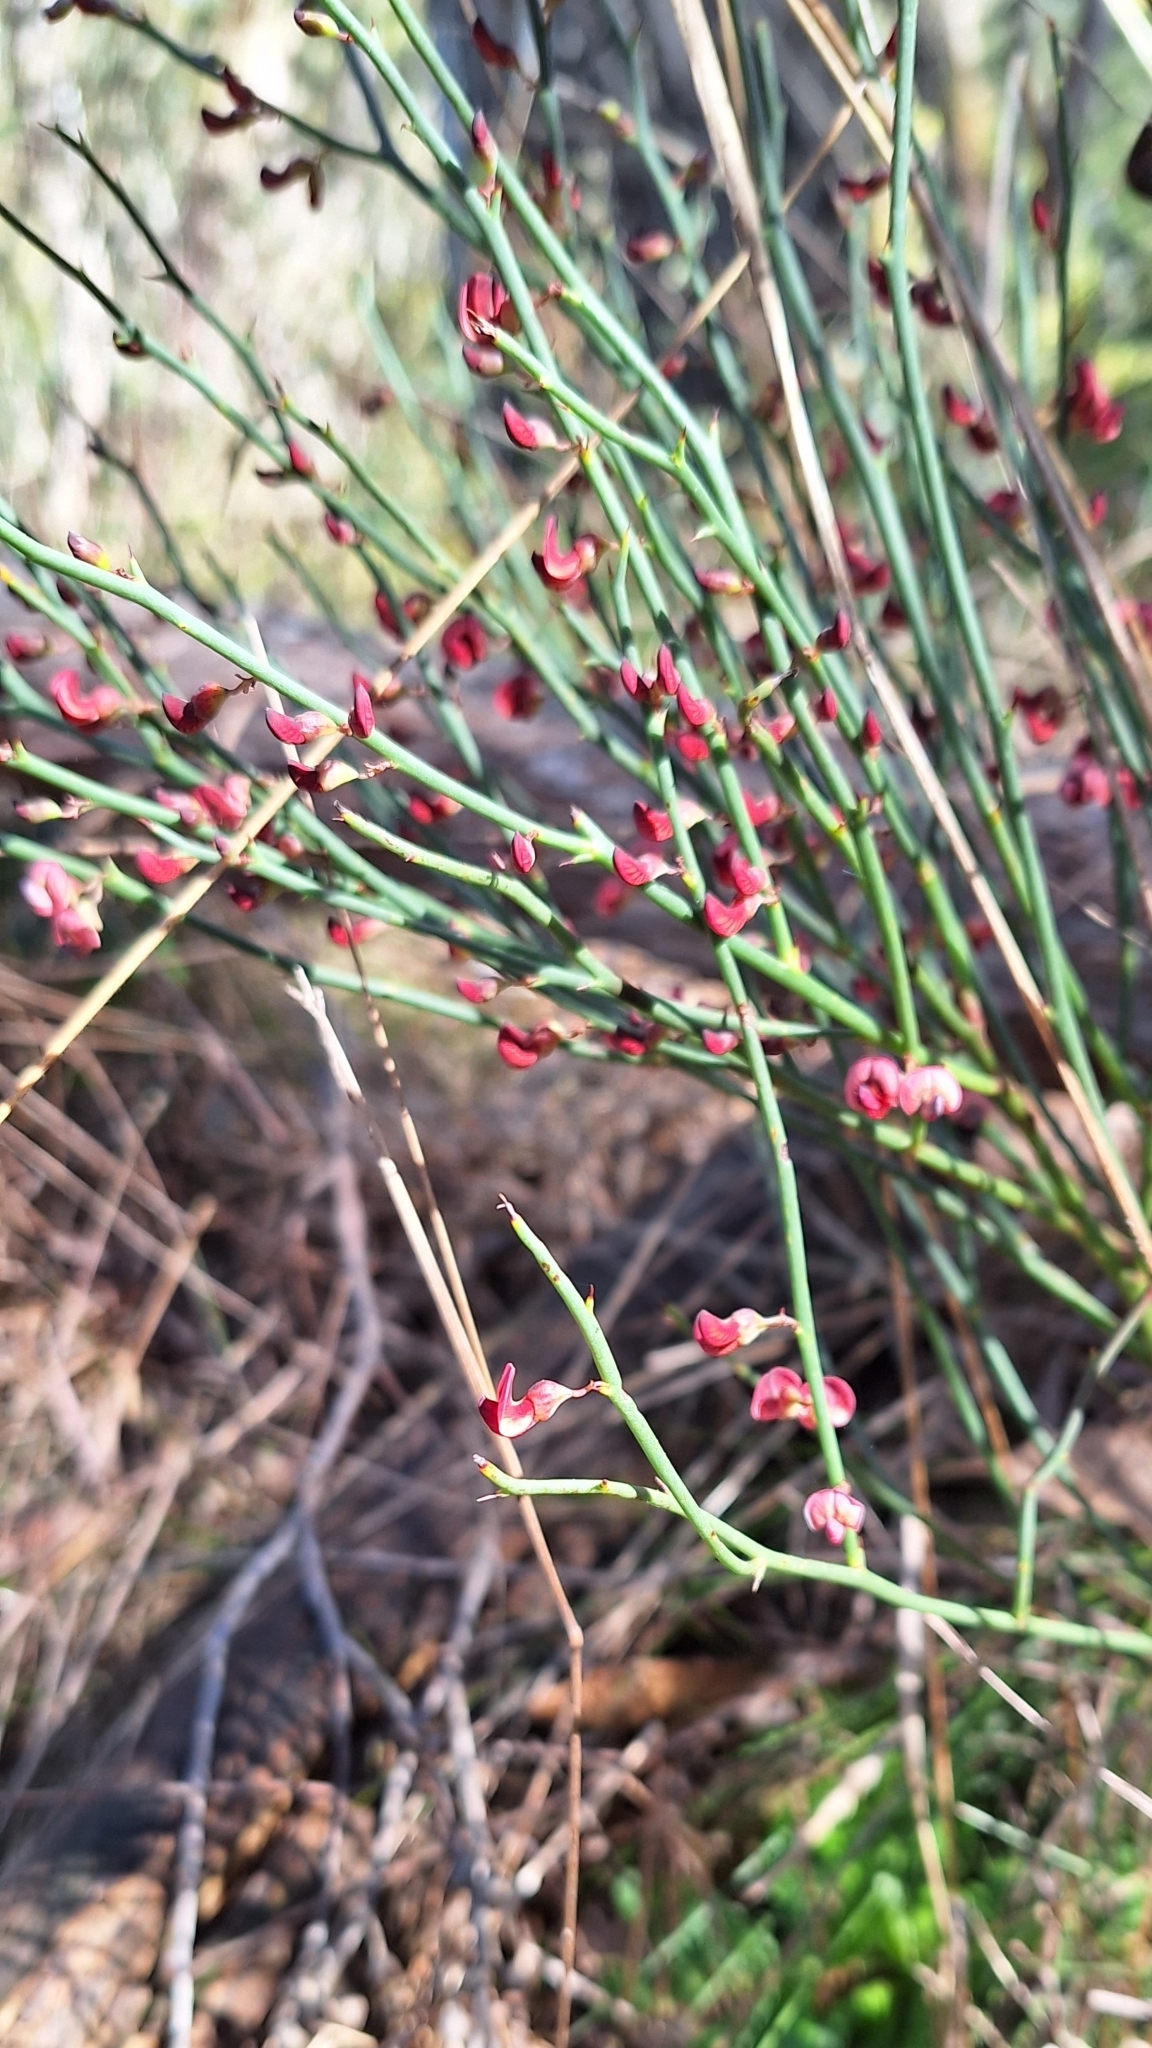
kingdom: Plantae
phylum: Tracheophyta
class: Magnoliopsida
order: Fabales
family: Fabaceae
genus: Daviesia
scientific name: Daviesia brevifolia
